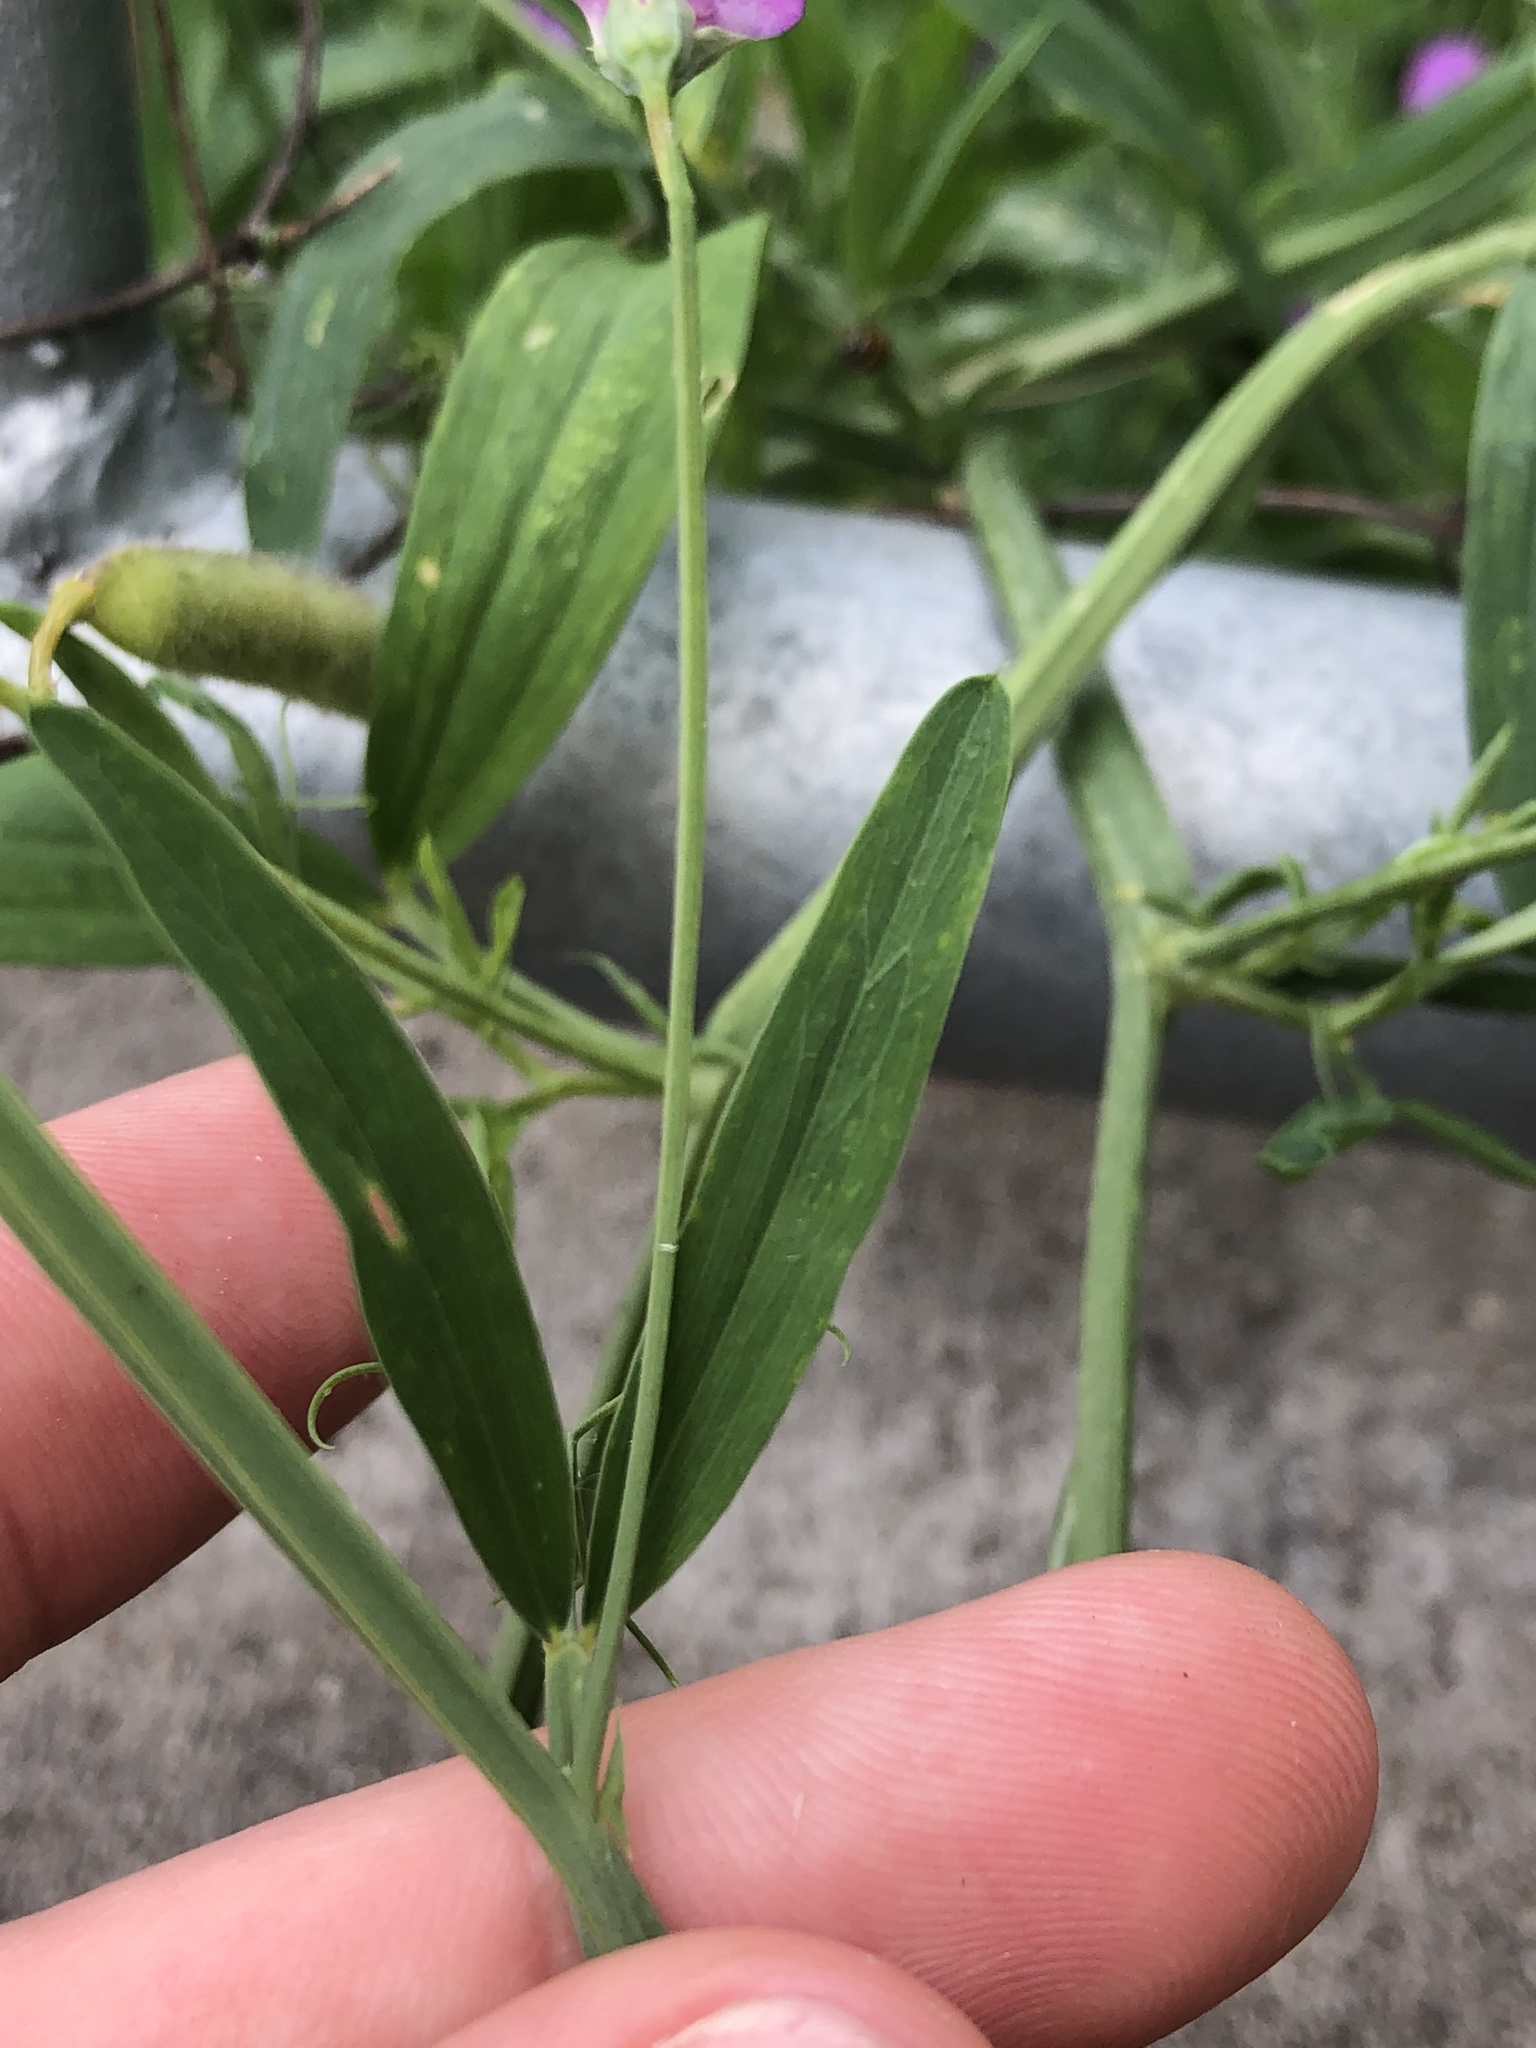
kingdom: Plantae
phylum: Tracheophyta
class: Magnoliopsida
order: Fabales
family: Fabaceae
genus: Lathyrus
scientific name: Lathyrus hirsutus
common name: Hairy vetchling
